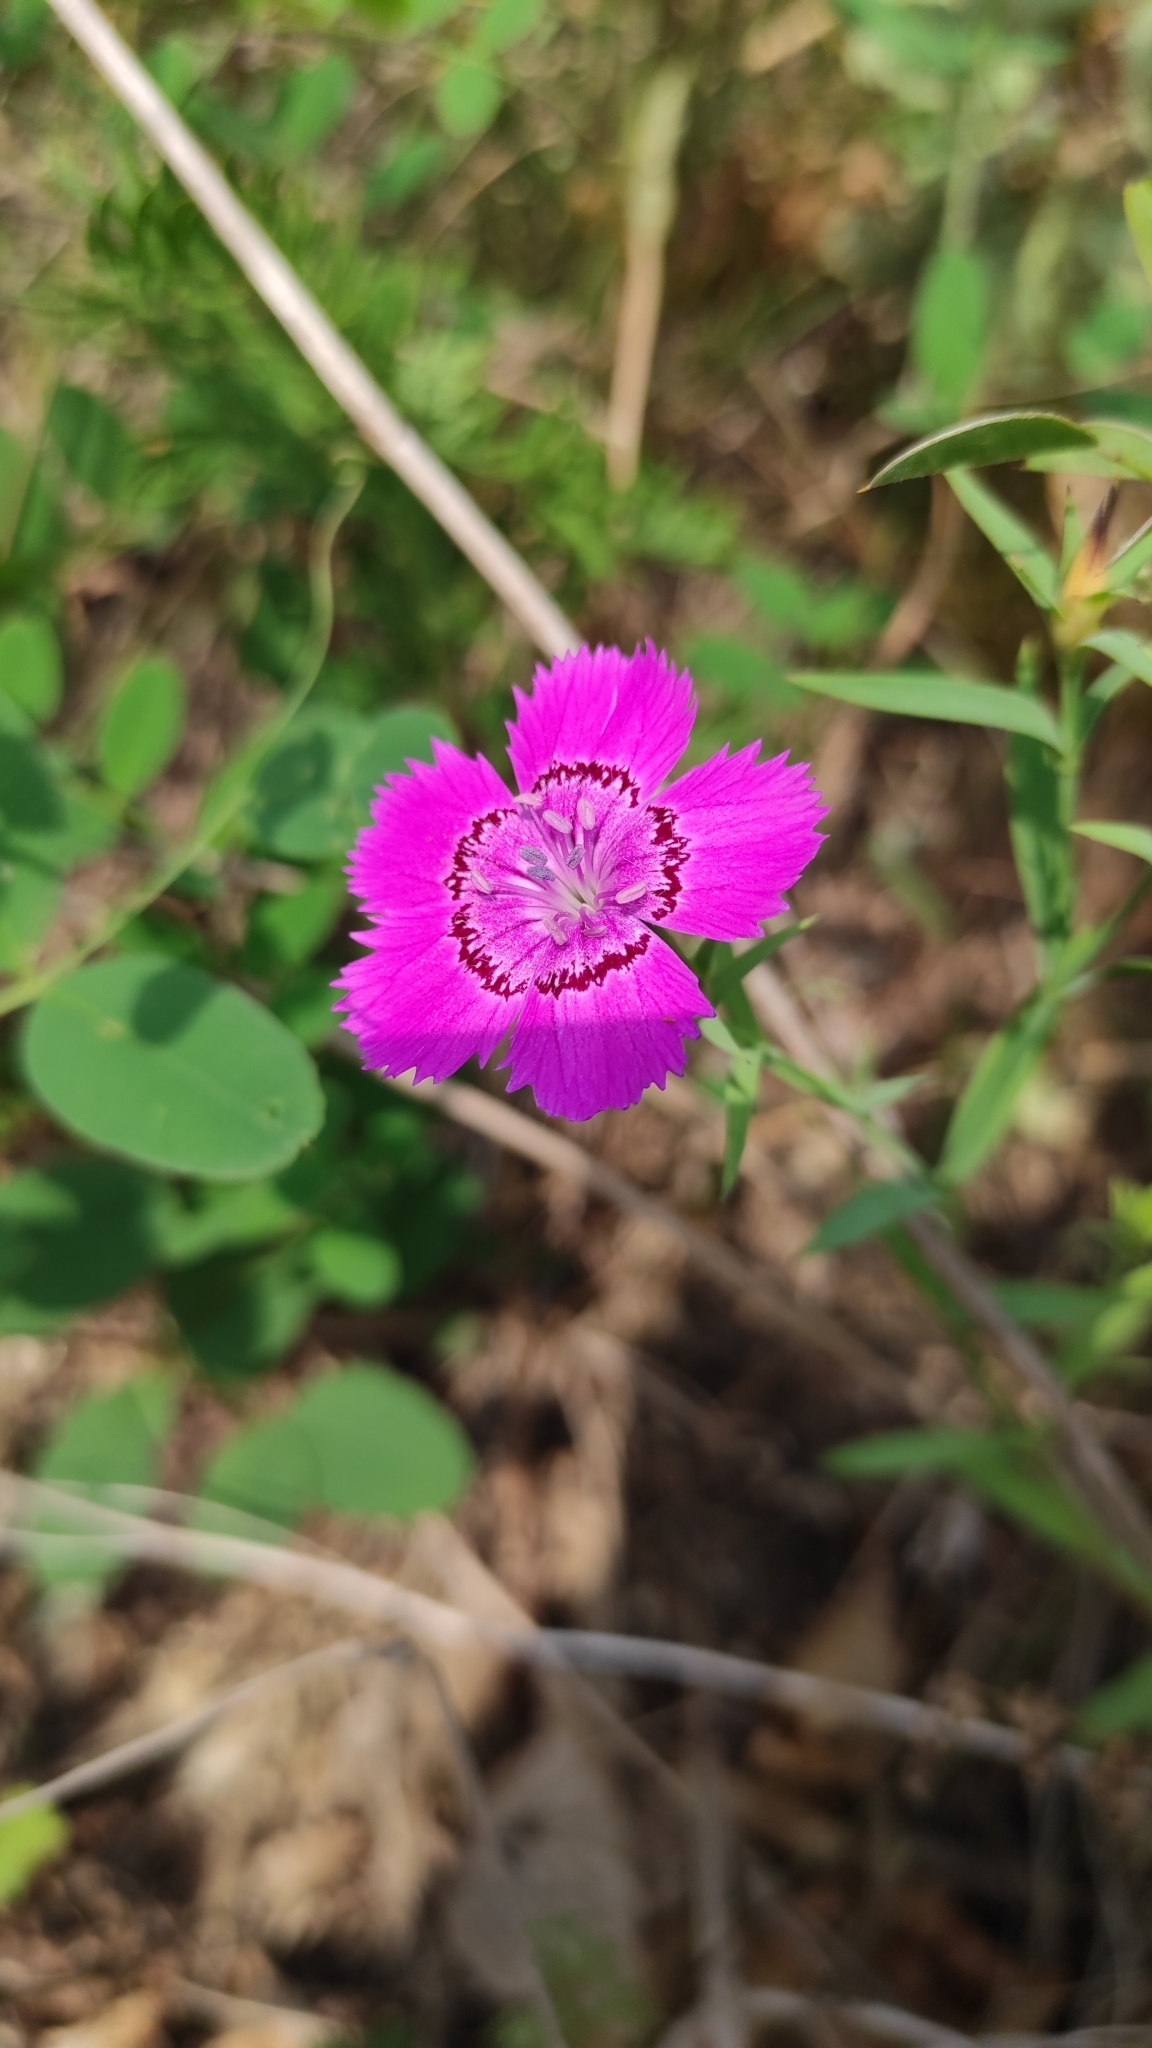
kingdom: Plantae
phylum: Tracheophyta
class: Magnoliopsida
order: Caryophyllales
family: Caryophyllaceae
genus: Dianthus
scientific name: Dianthus chinensis
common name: Rainbow pink
